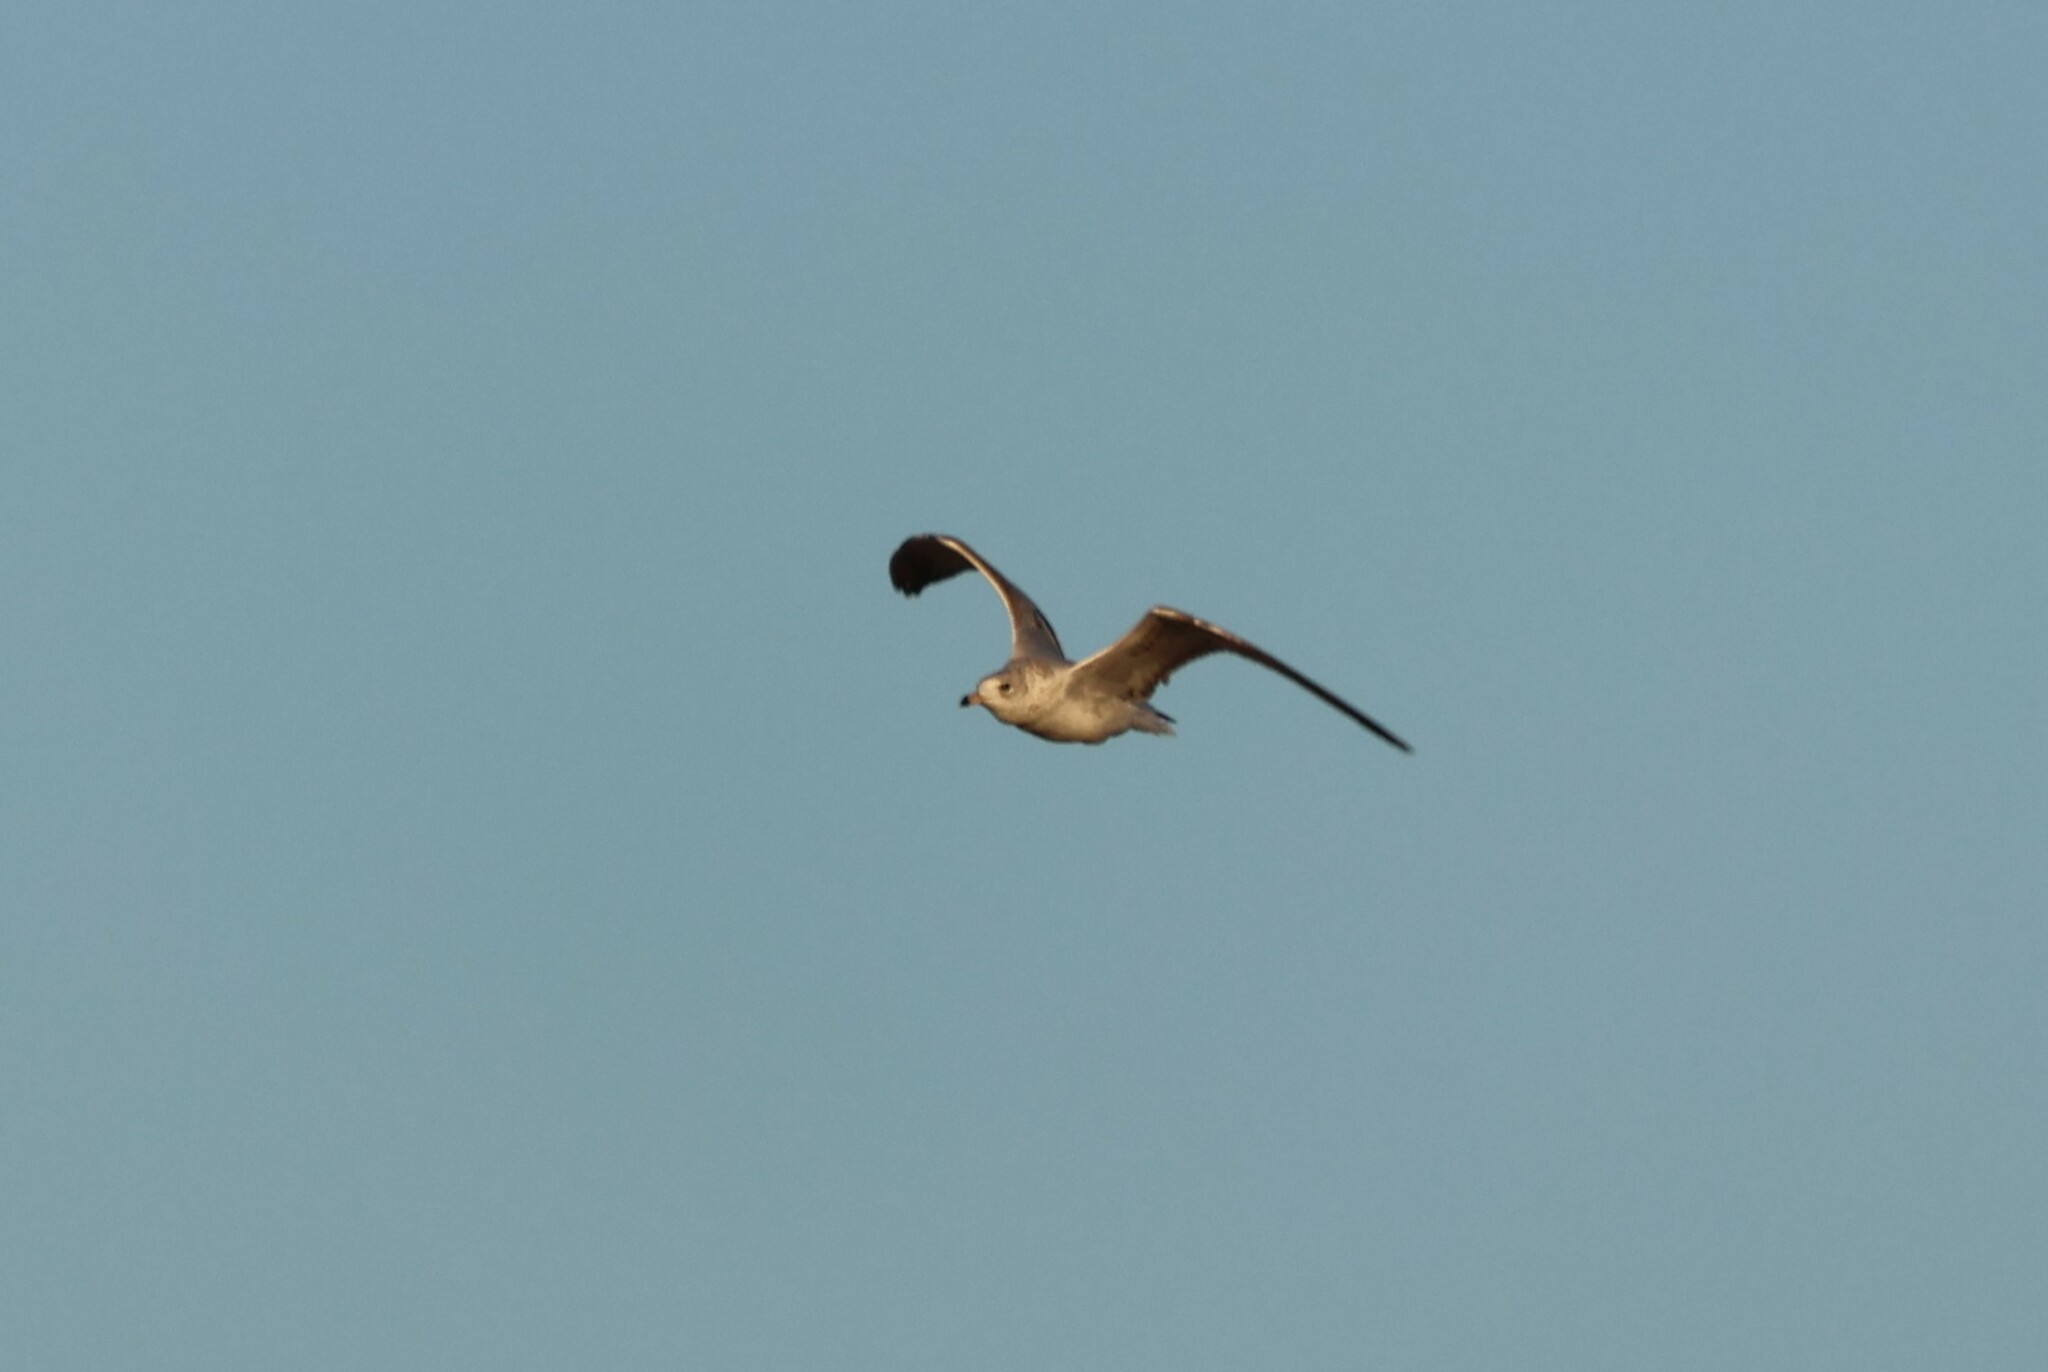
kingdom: Animalia
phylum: Chordata
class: Aves
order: Charadriiformes
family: Laridae
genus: Larus
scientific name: Larus delawarensis
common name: Ring-billed gull
